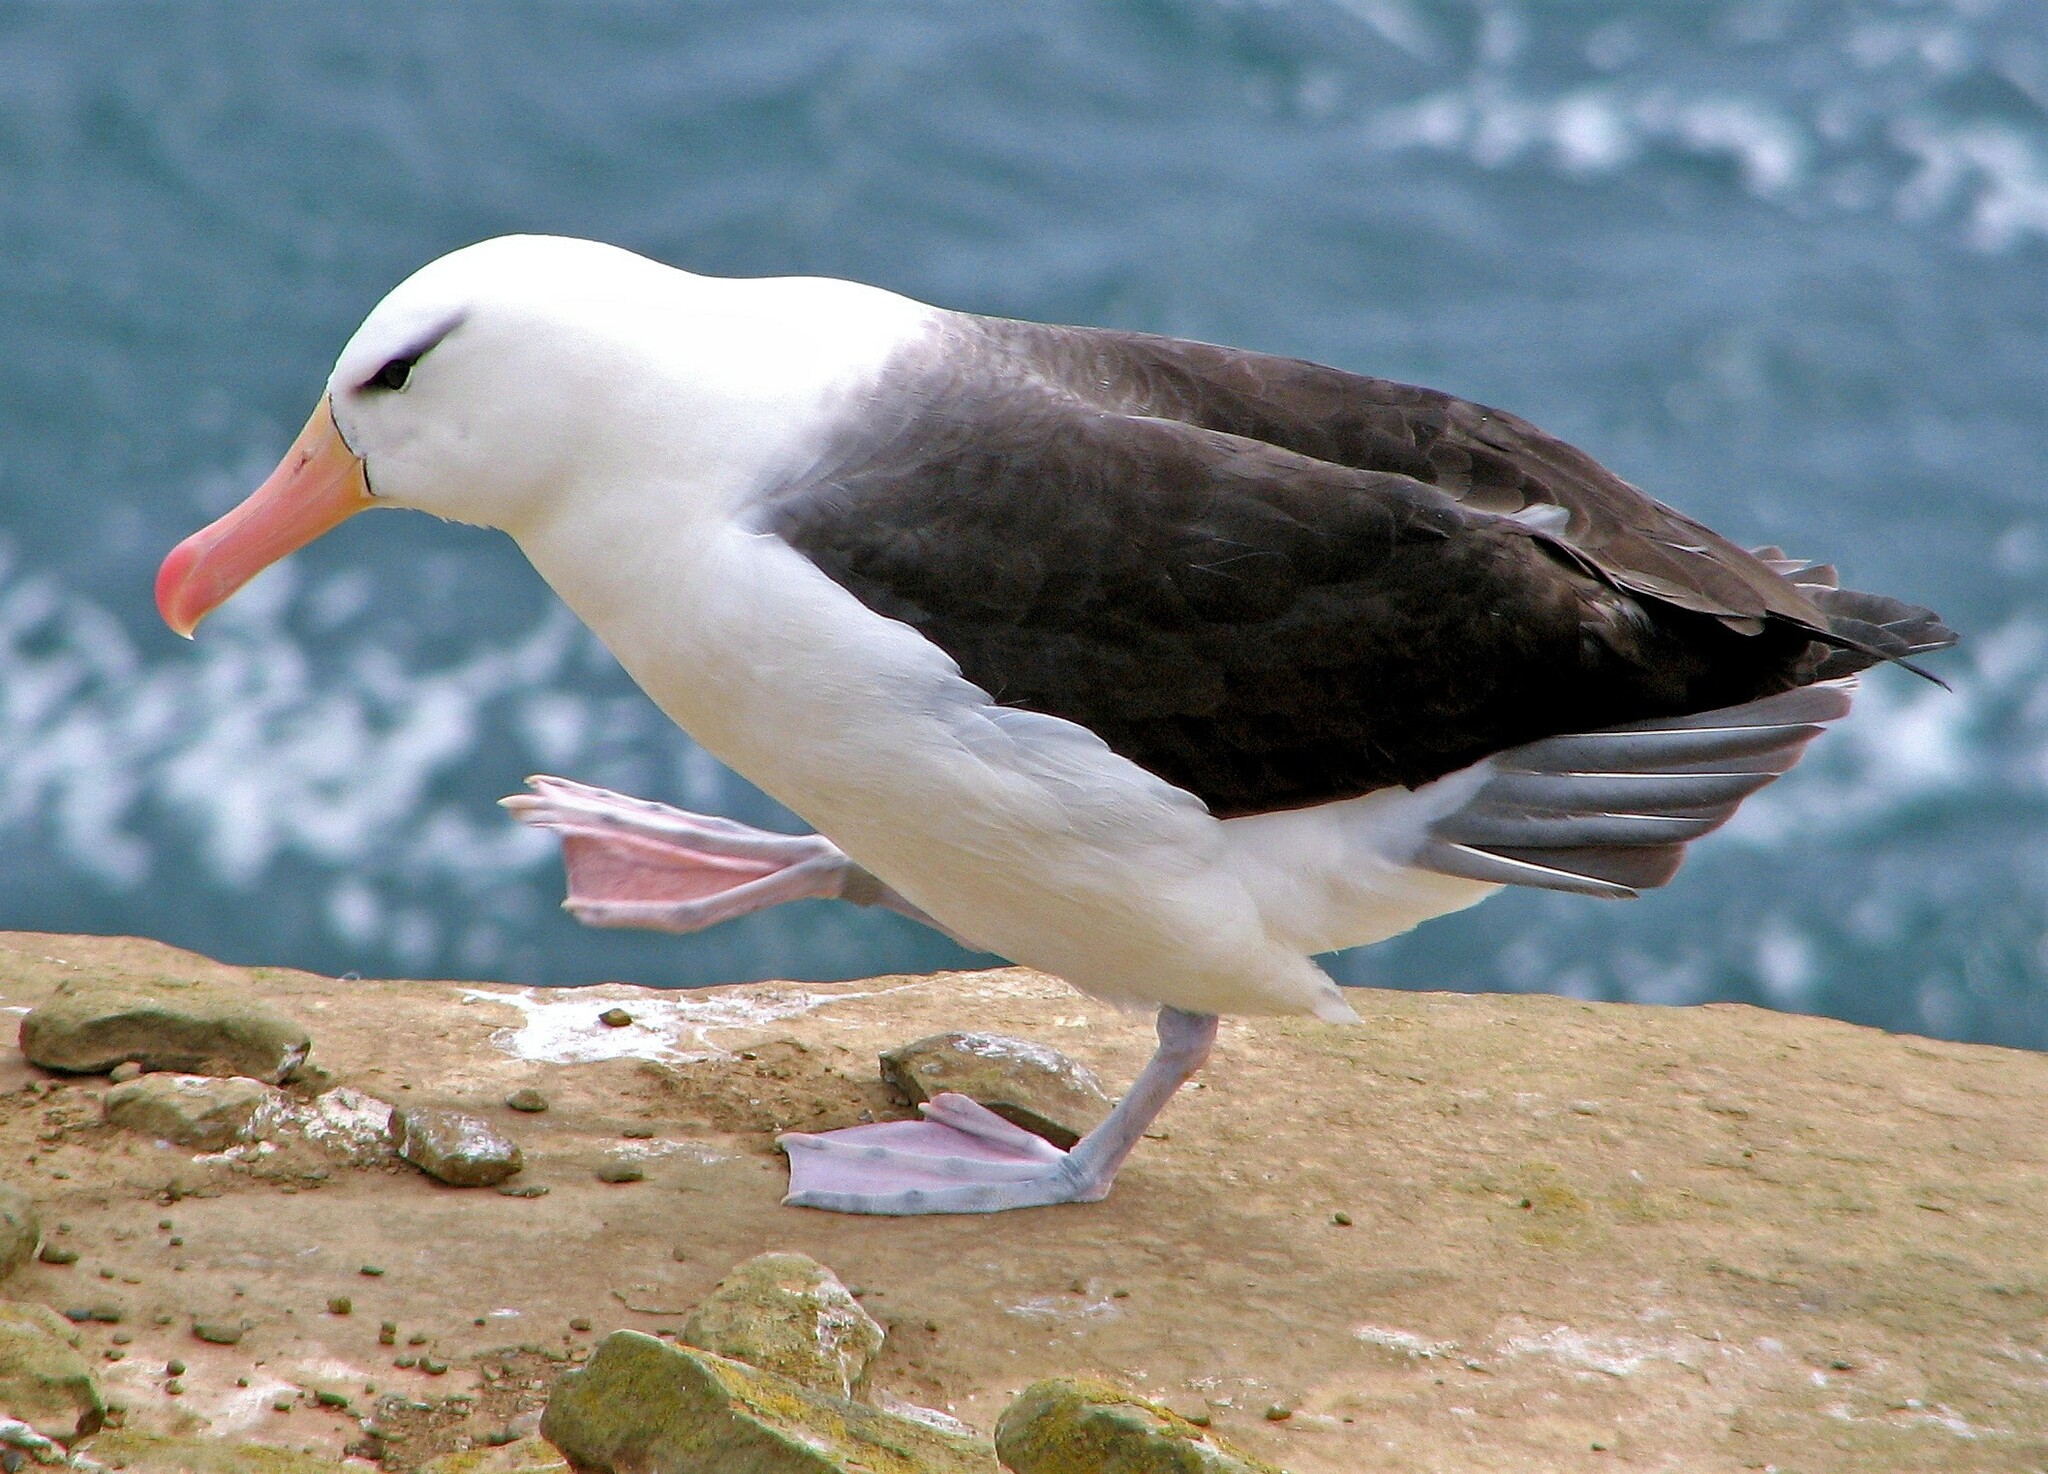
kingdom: Animalia
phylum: Chordata
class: Aves
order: Procellariiformes
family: Diomedeidae
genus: Thalassarche
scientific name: Thalassarche melanophris
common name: Black-browed albatross
